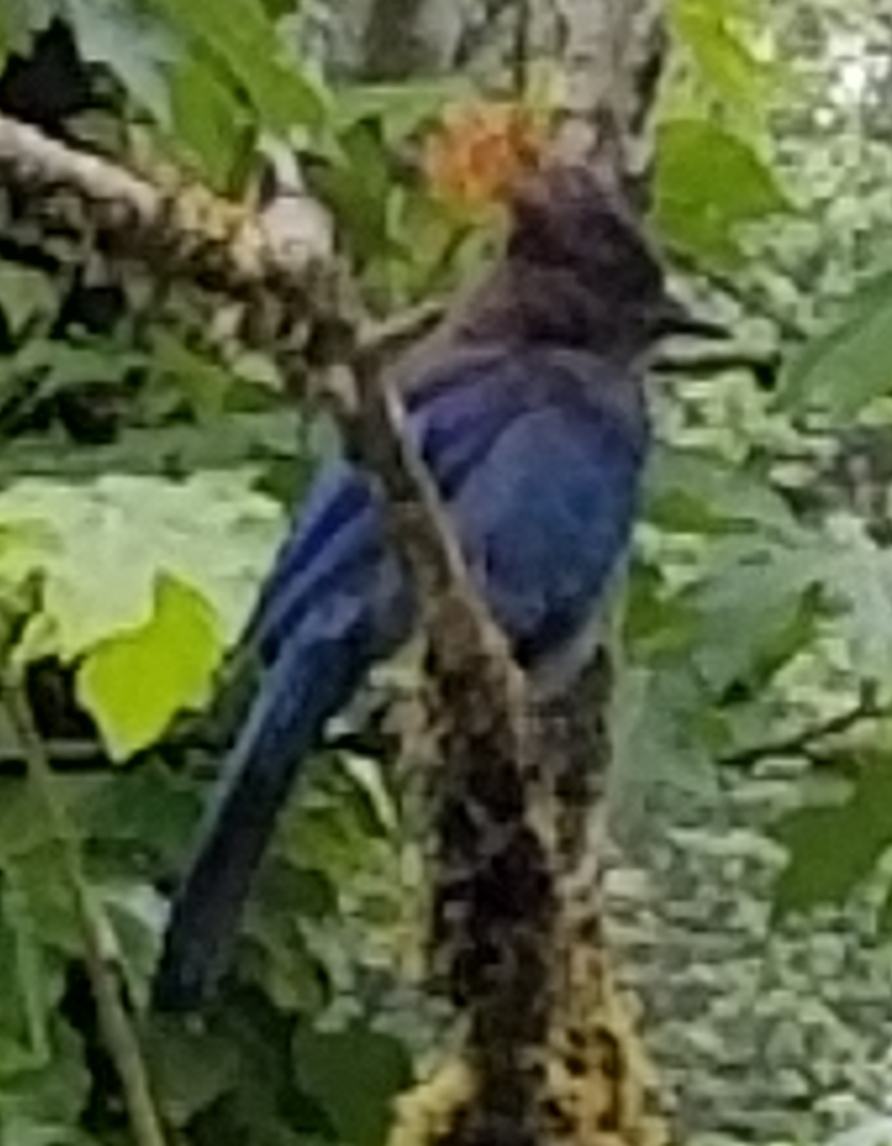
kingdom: Animalia
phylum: Chordata
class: Aves
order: Passeriformes
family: Corvidae
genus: Cyanocitta
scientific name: Cyanocitta stelleri
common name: Steller's jay
